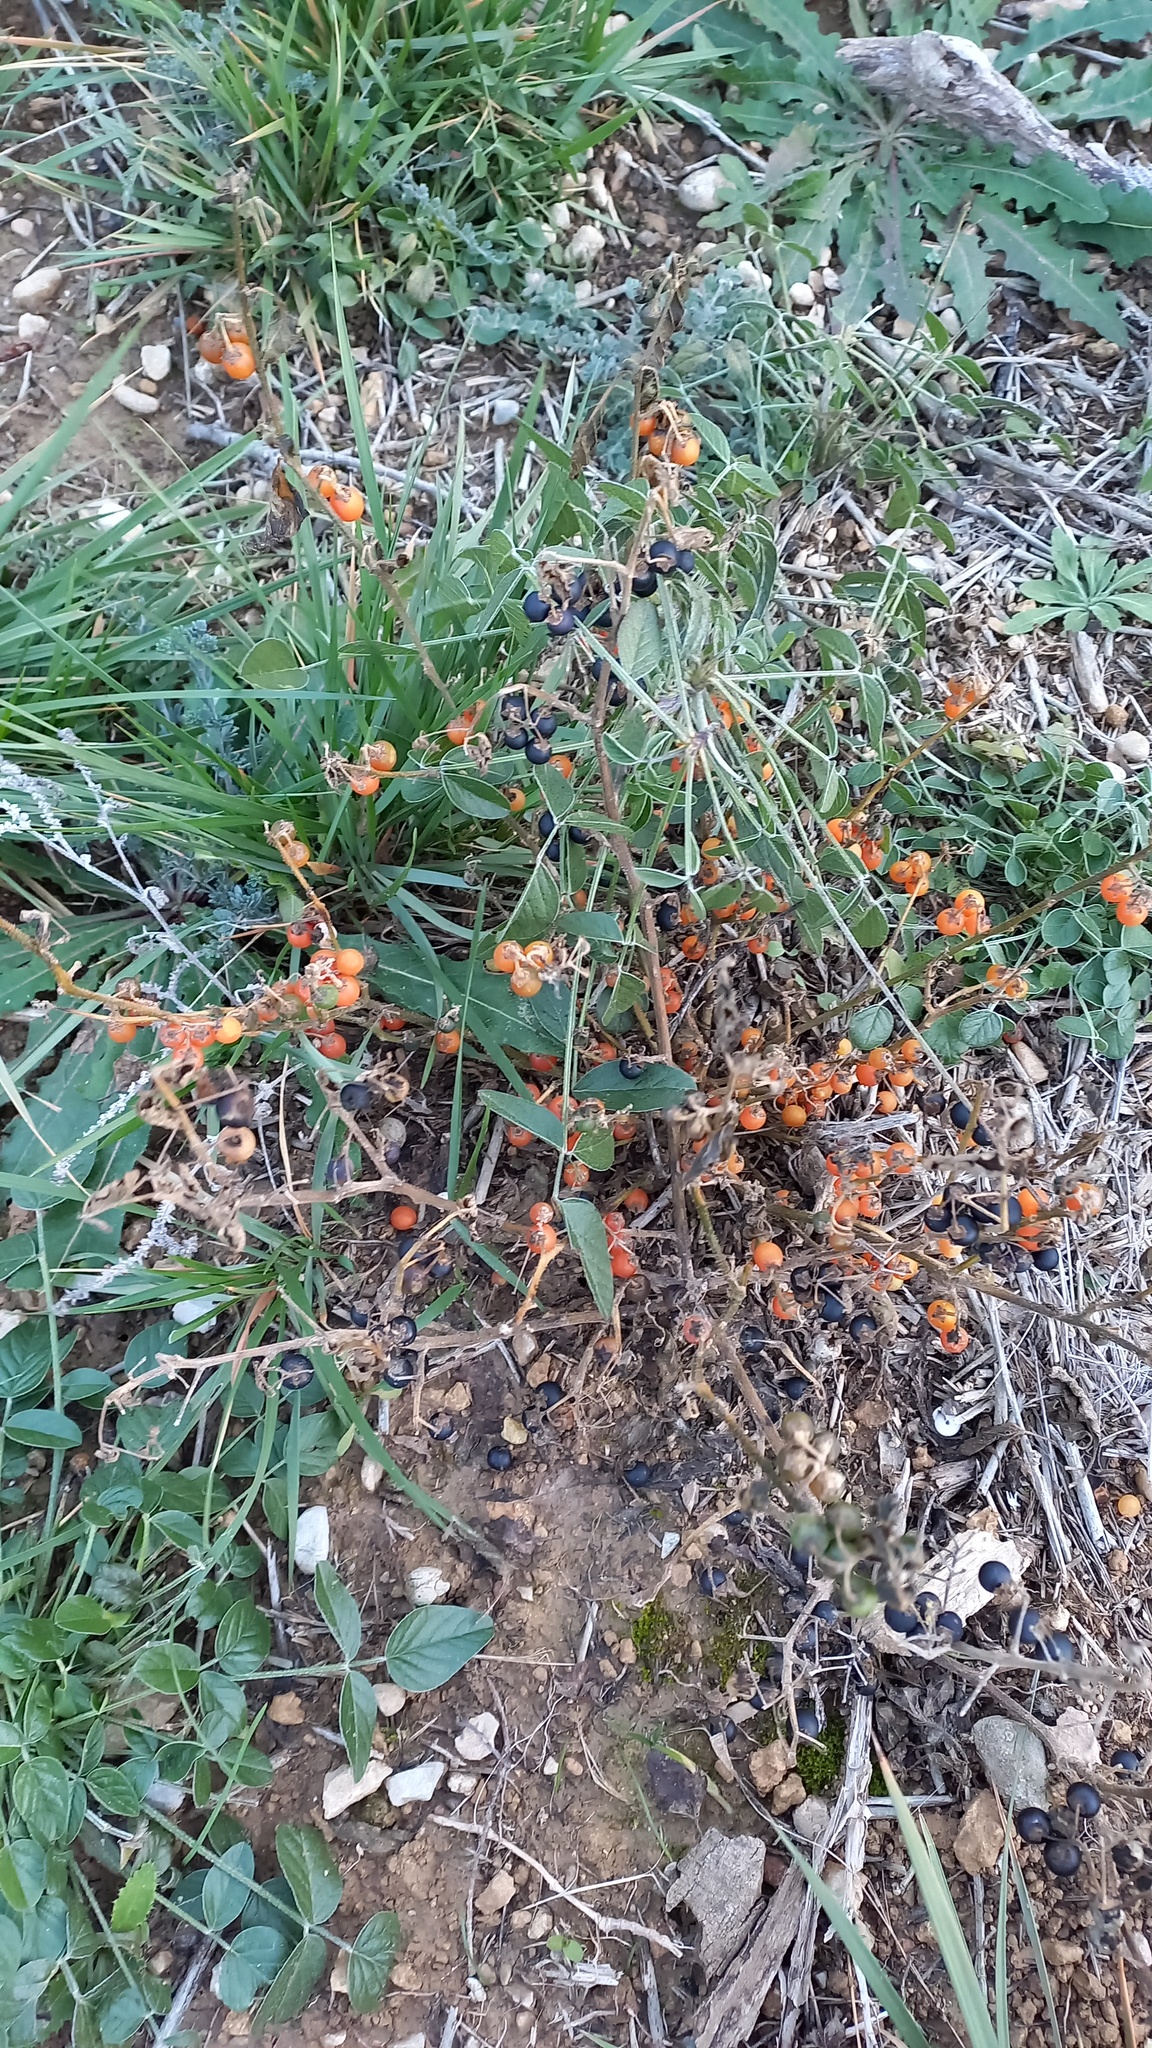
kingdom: Plantae
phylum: Tracheophyta
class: Magnoliopsida
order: Solanales
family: Solanaceae
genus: Solanum
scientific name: Solanum villosum
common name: Red nightshade
